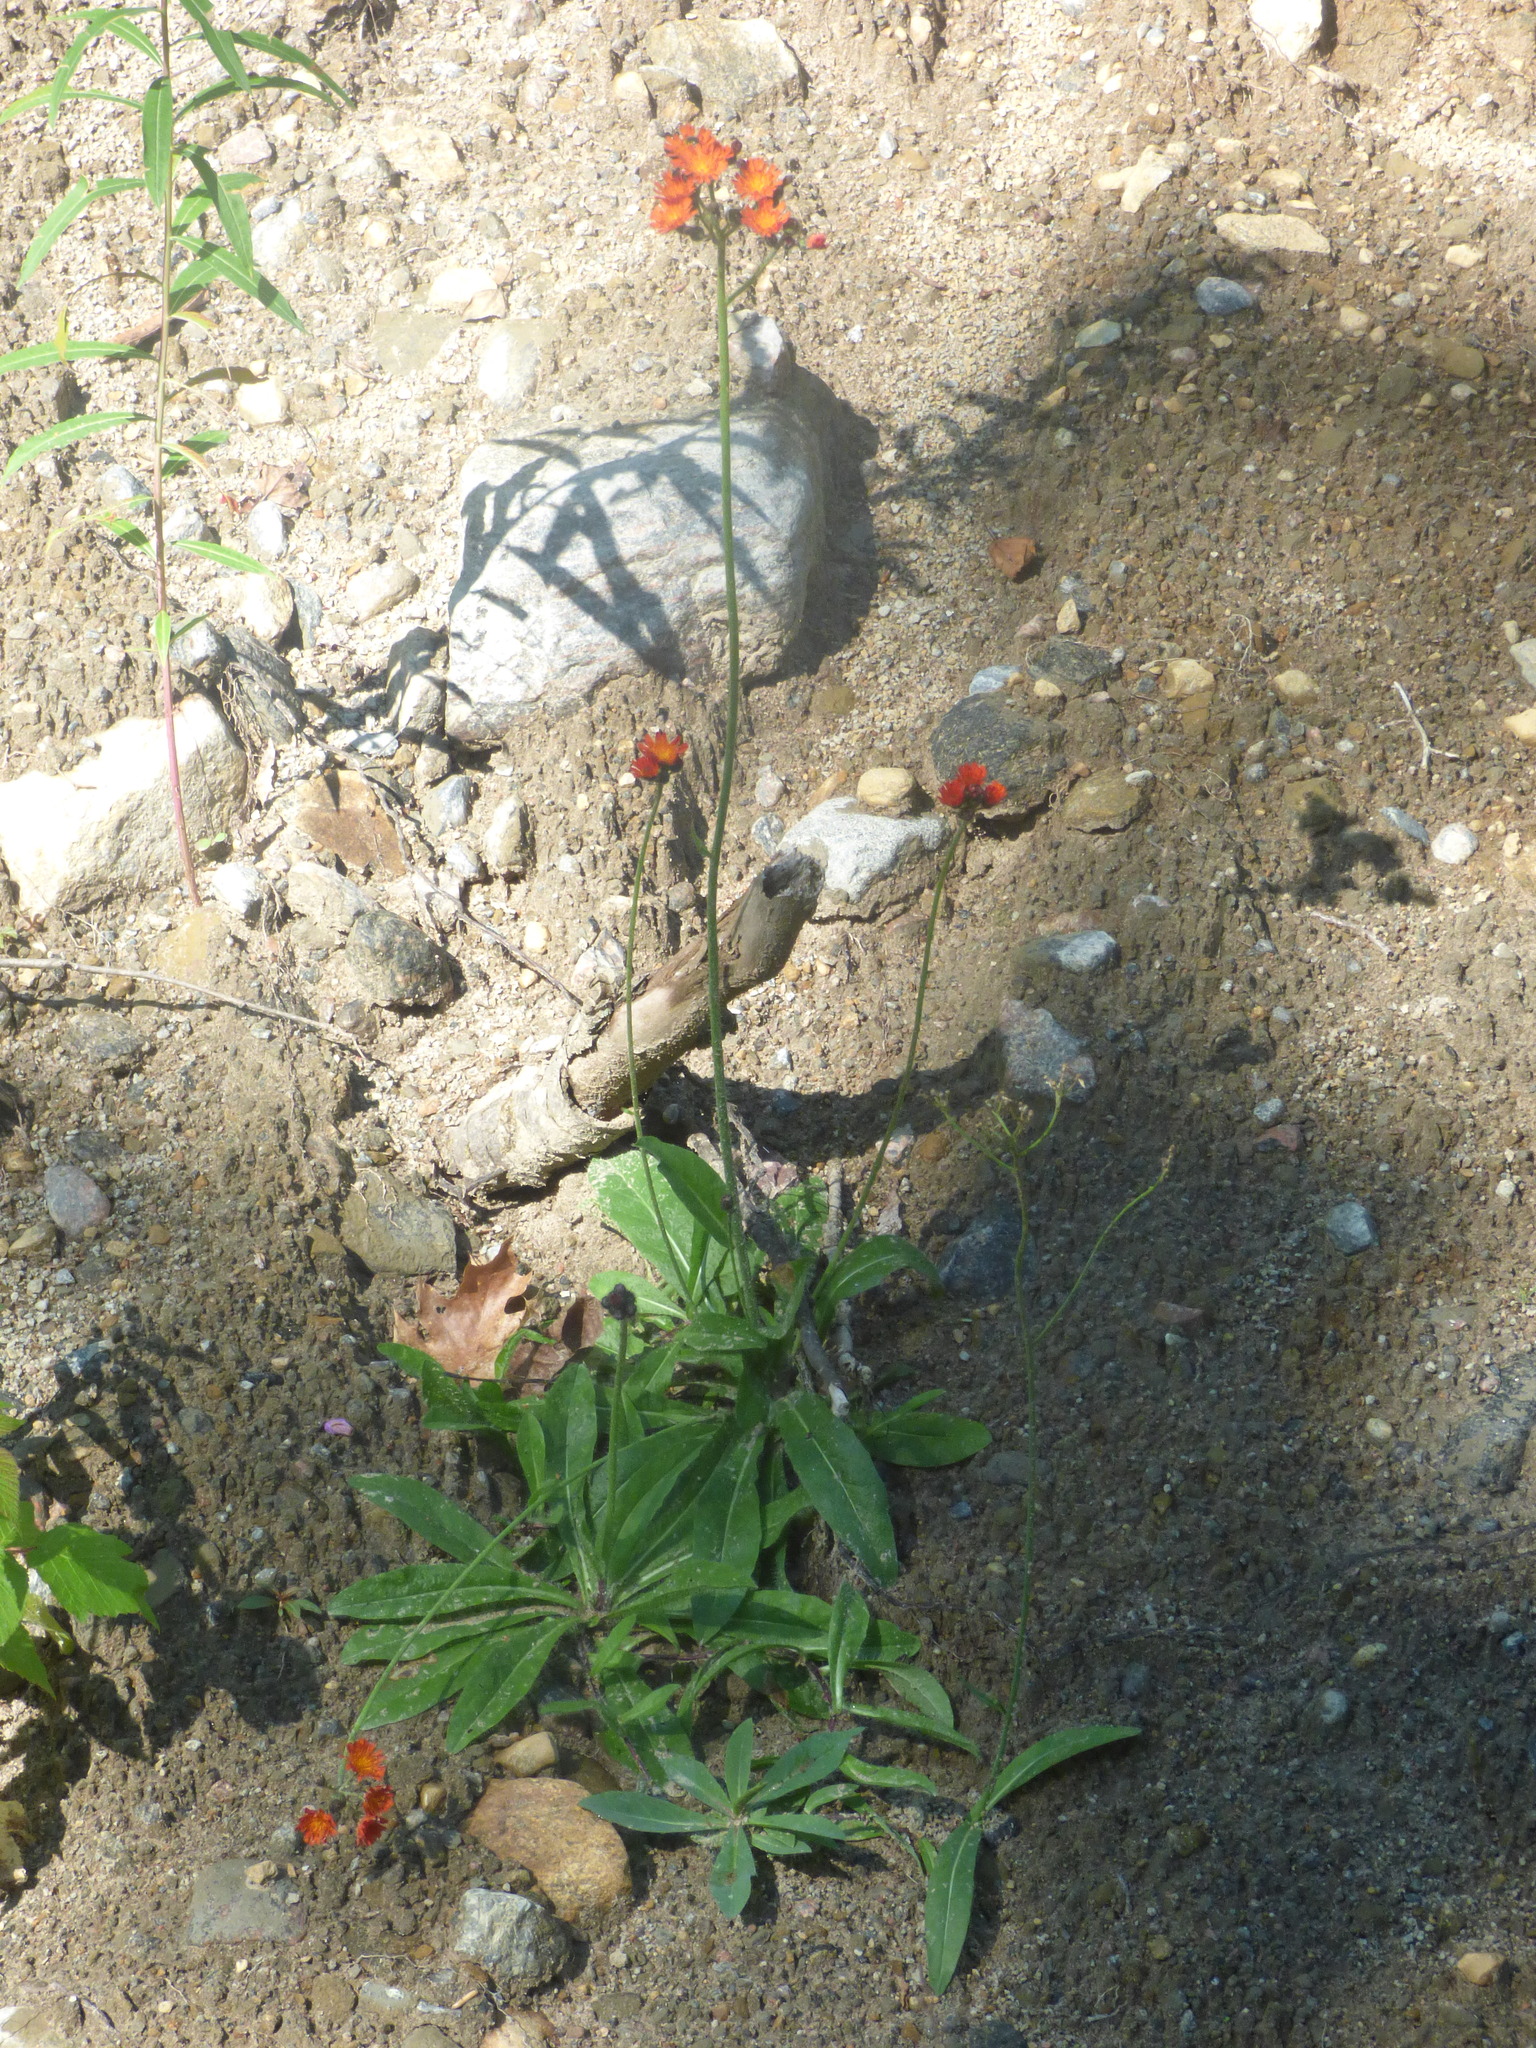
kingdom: Plantae
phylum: Tracheophyta
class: Magnoliopsida
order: Asterales
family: Asteraceae
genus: Pilosella
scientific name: Pilosella aurantiaca
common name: Fox-and-cubs
